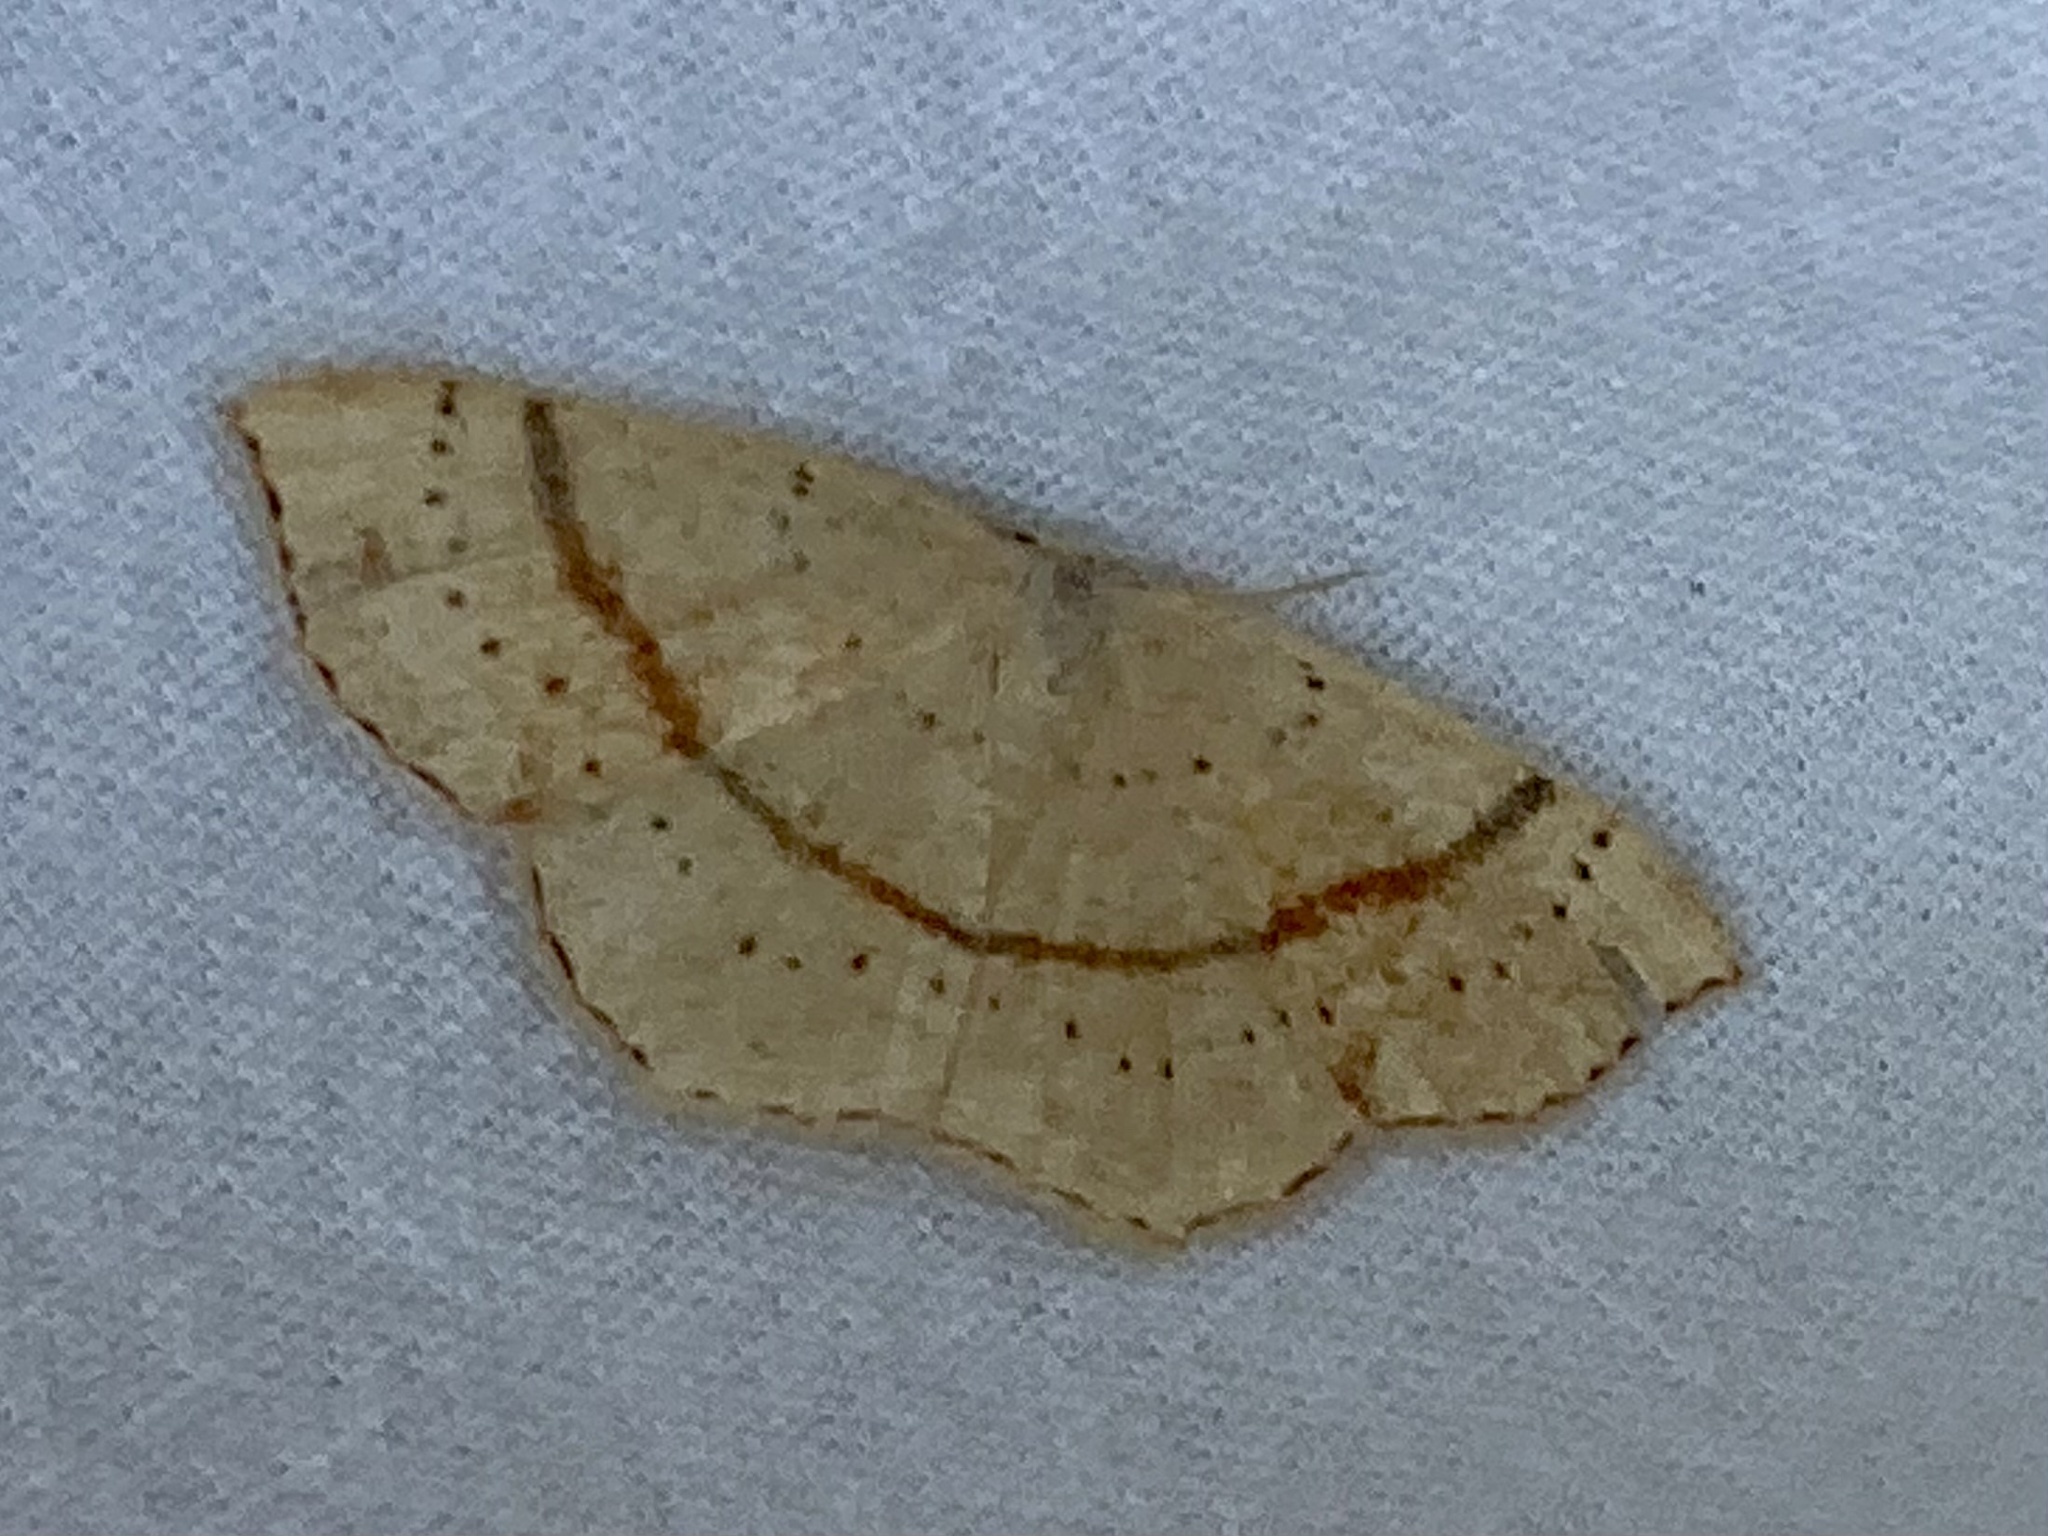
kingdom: Animalia
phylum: Arthropoda
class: Insecta
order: Lepidoptera
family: Geometridae
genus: Cyclophora
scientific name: Cyclophora punctaria
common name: Maiden's blush
